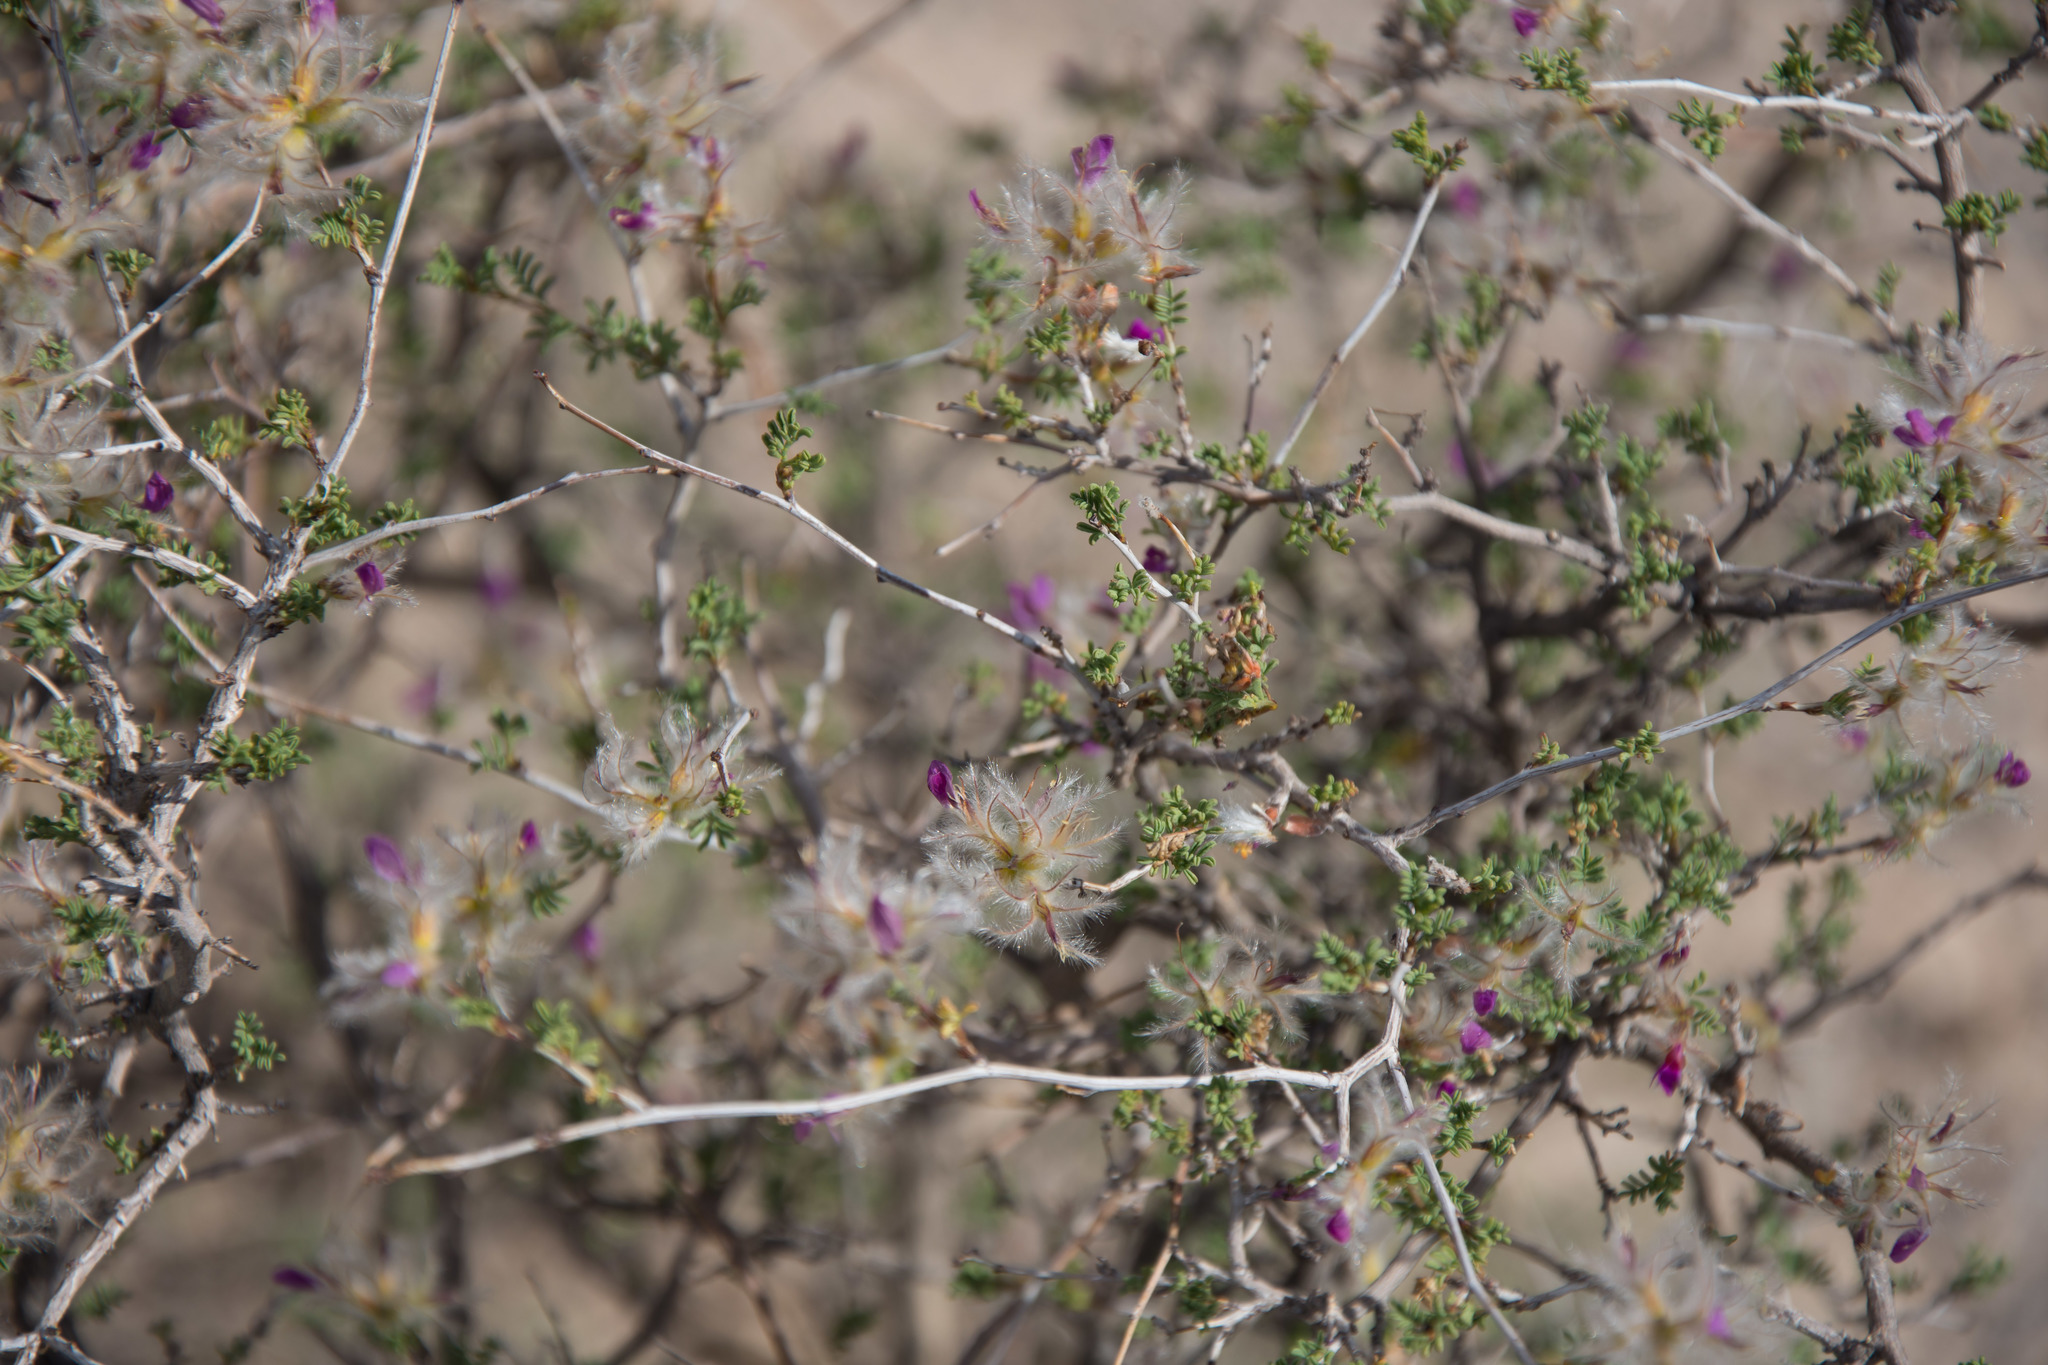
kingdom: Plantae
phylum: Tracheophyta
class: Magnoliopsida
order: Fabales
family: Fabaceae
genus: Dalea
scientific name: Dalea formosa
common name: Feather-plume dalea
